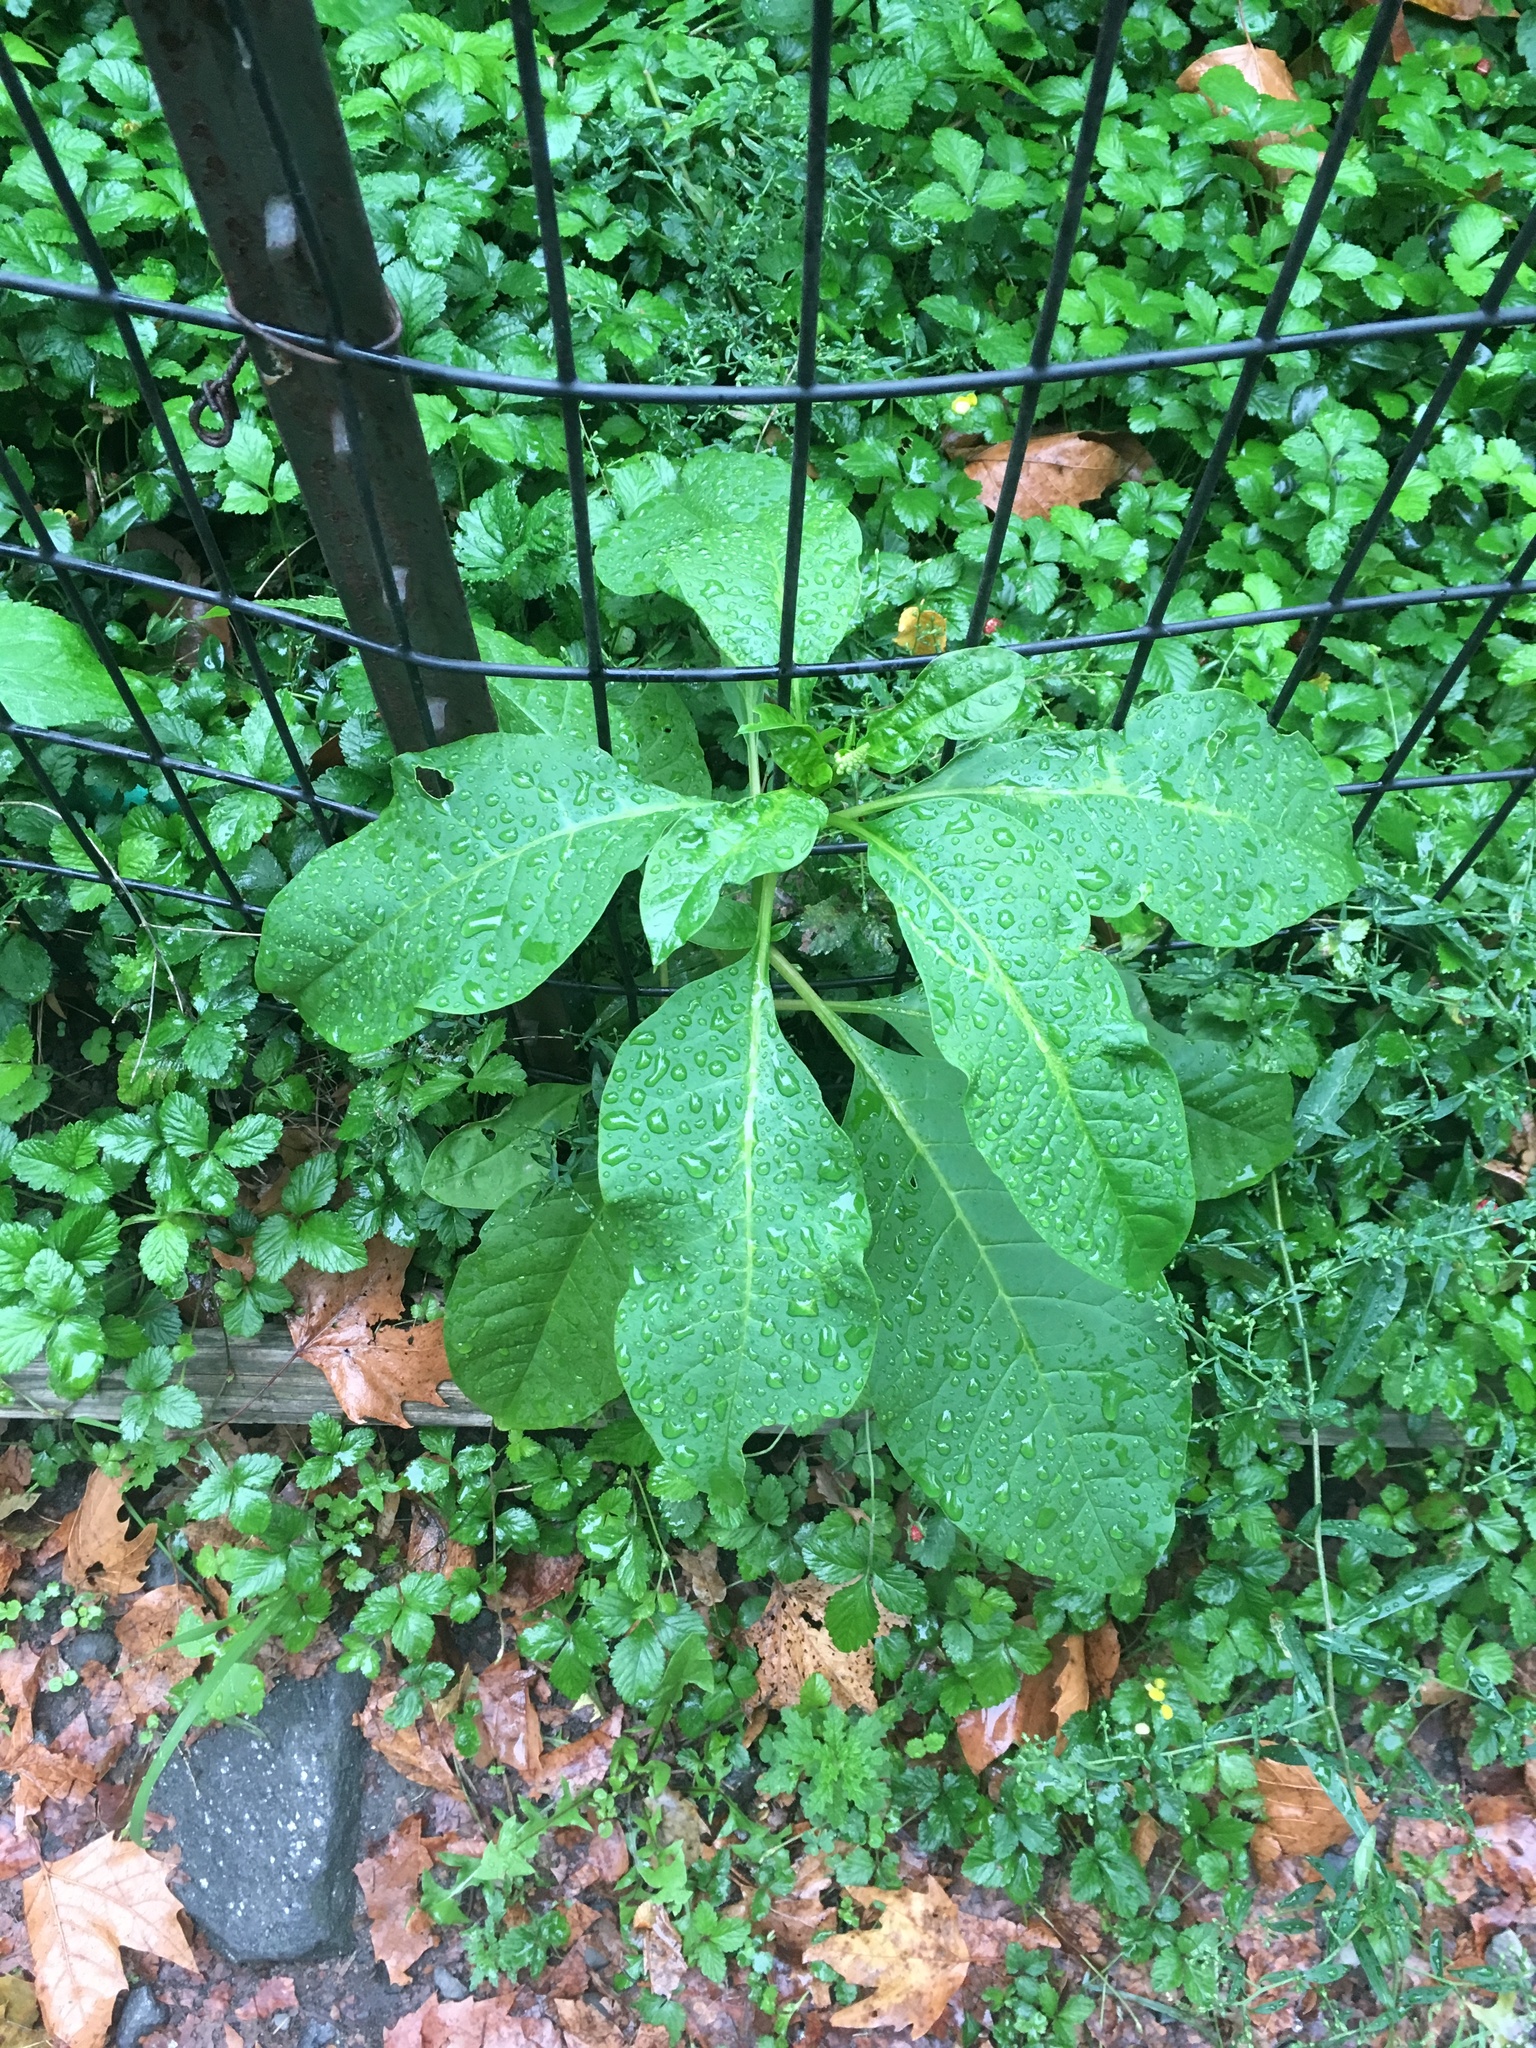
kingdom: Plantae
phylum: Tracheophyta
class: Magnoliopsida
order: Caryophyllales
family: Phytolaccaceae
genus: Phytolacca
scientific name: Phytolacca americana
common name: American pokeweed
